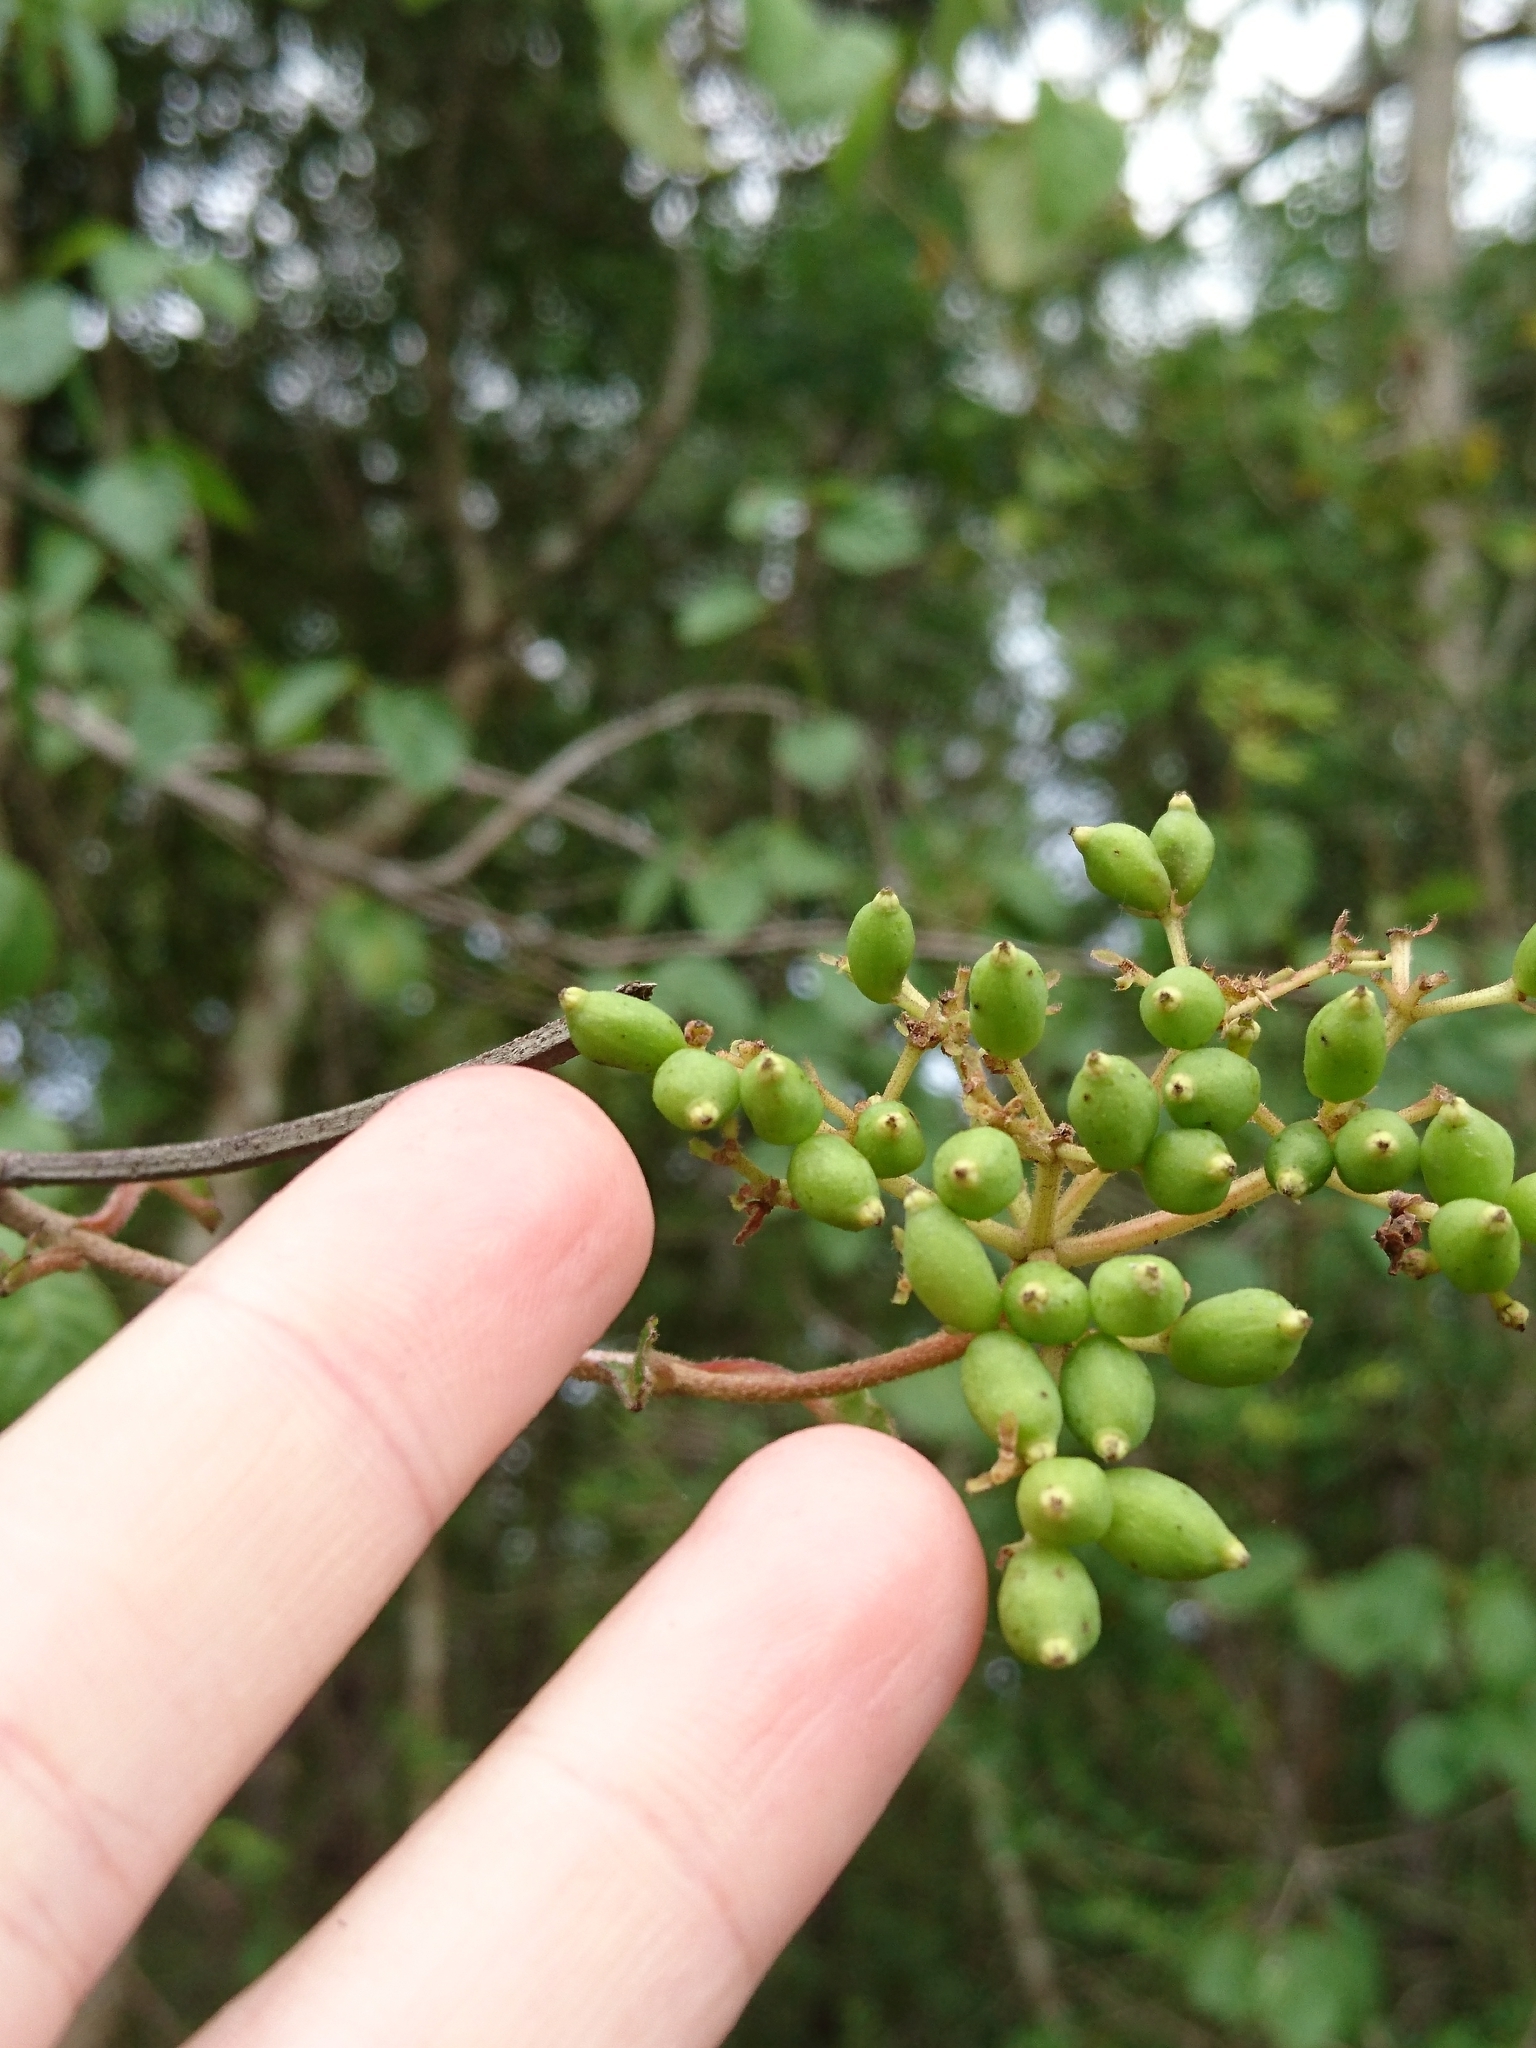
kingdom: Plantae
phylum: Tracheophyta
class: Magnoliopsida
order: Dipsacales
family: Viburnaceae
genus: Viburnum
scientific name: Viburnum scabrellum
